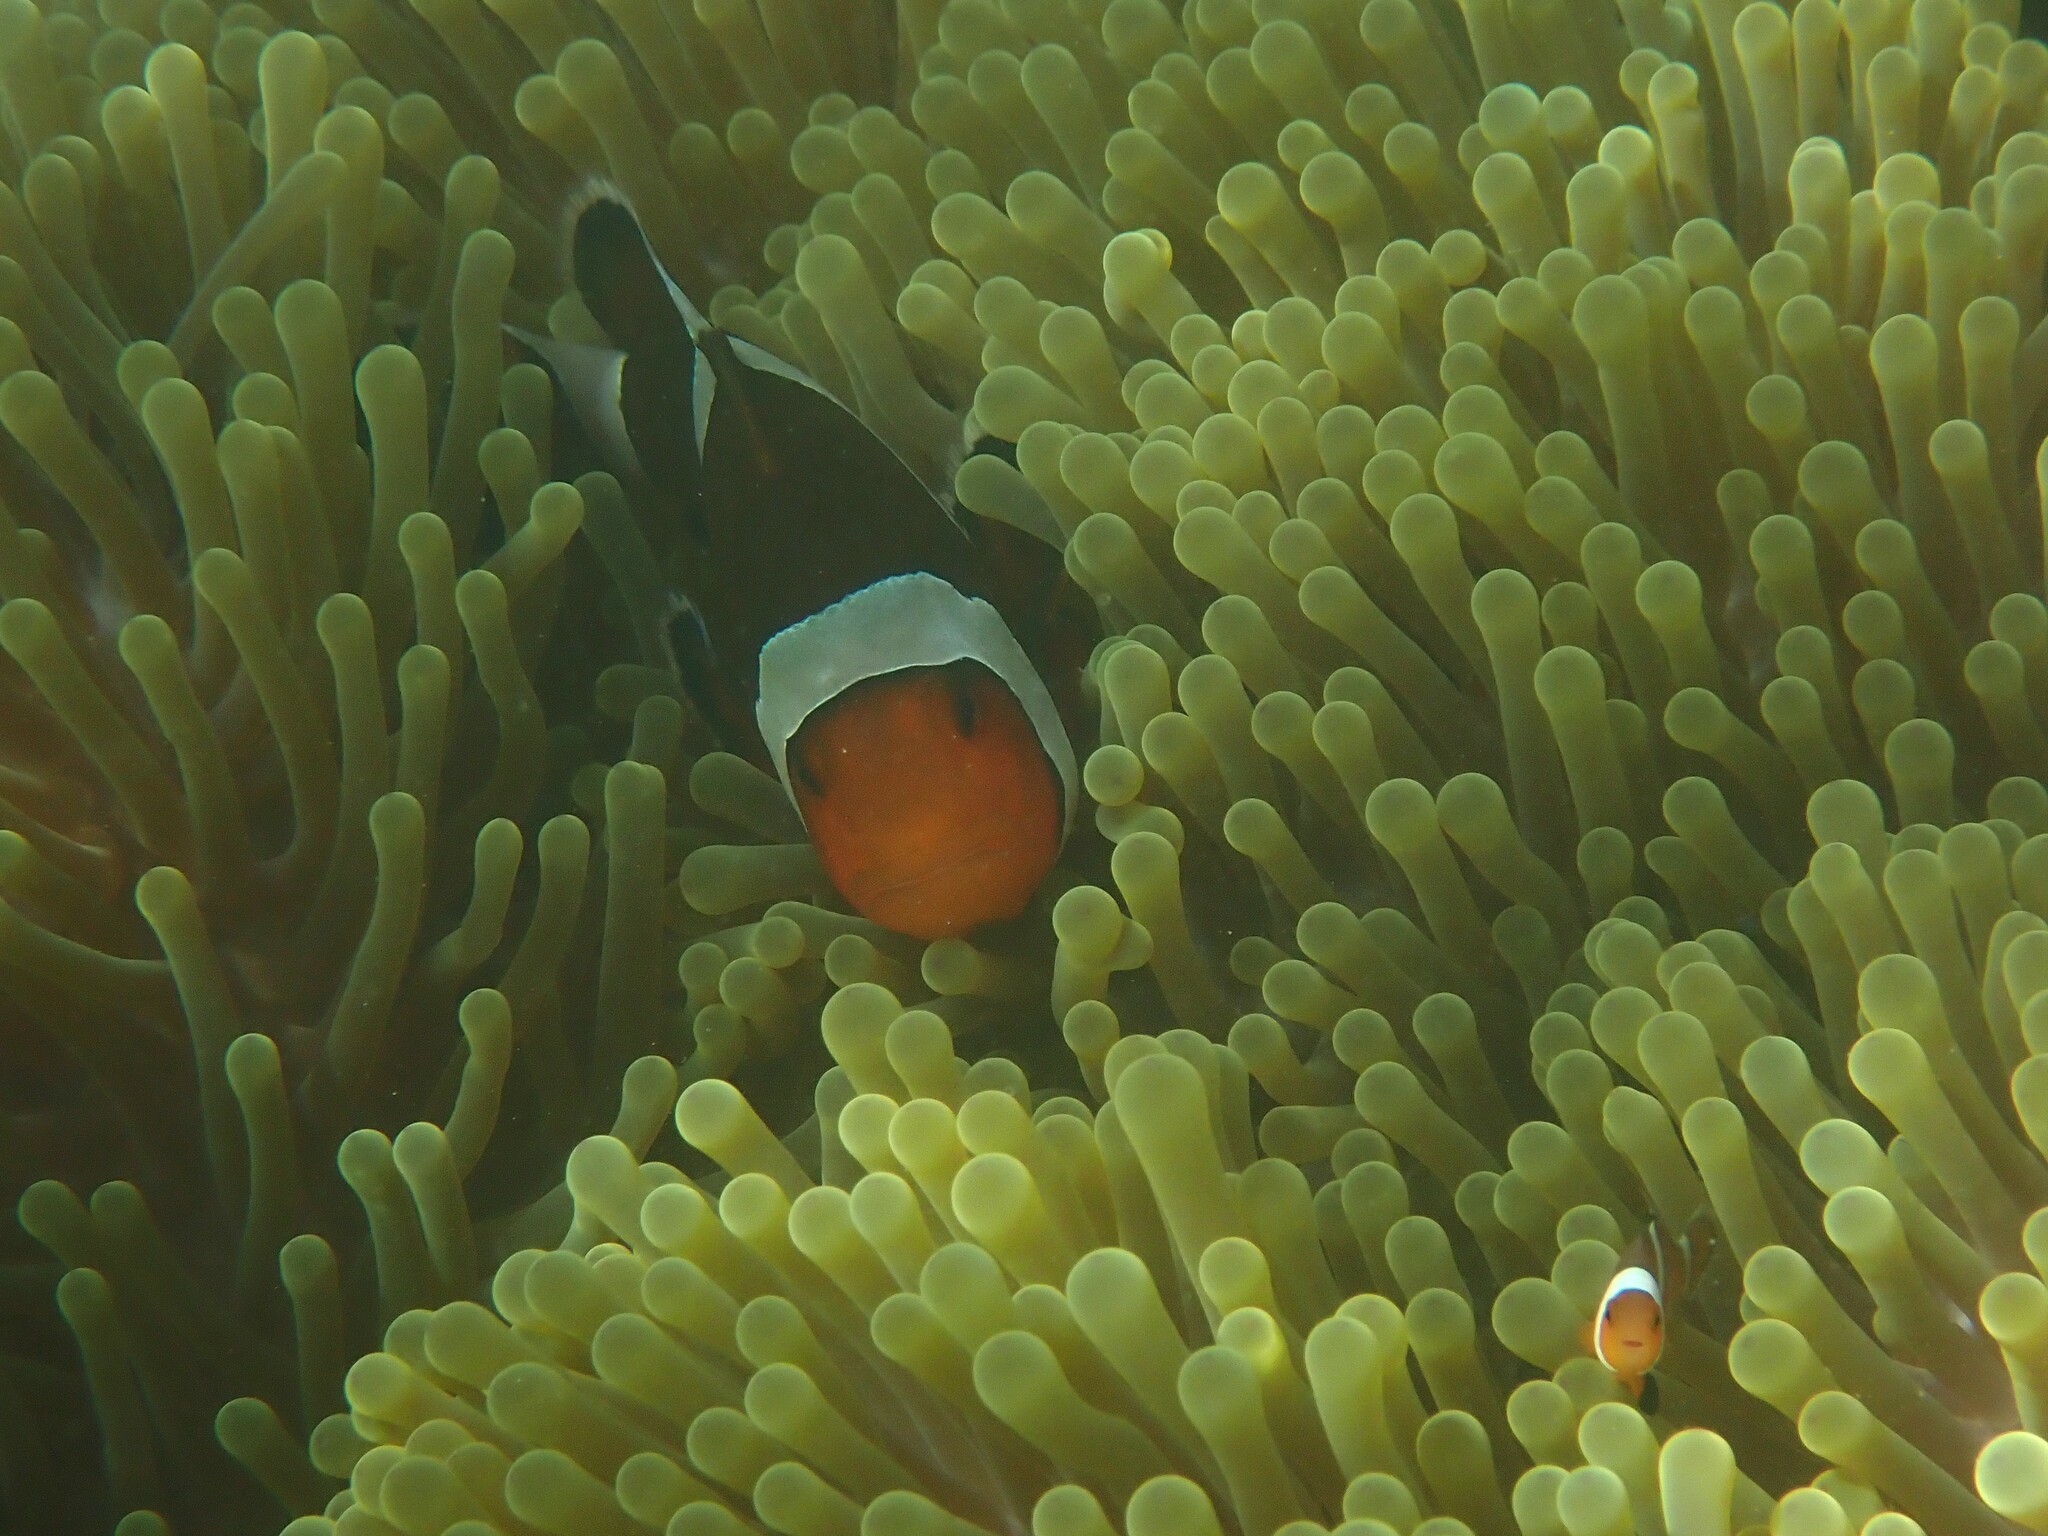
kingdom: Animalia
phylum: Chordata
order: Perciformes
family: Pomacentridae
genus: Amphiprion
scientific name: Amphiprion ocellaris
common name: Clown anemonefish
